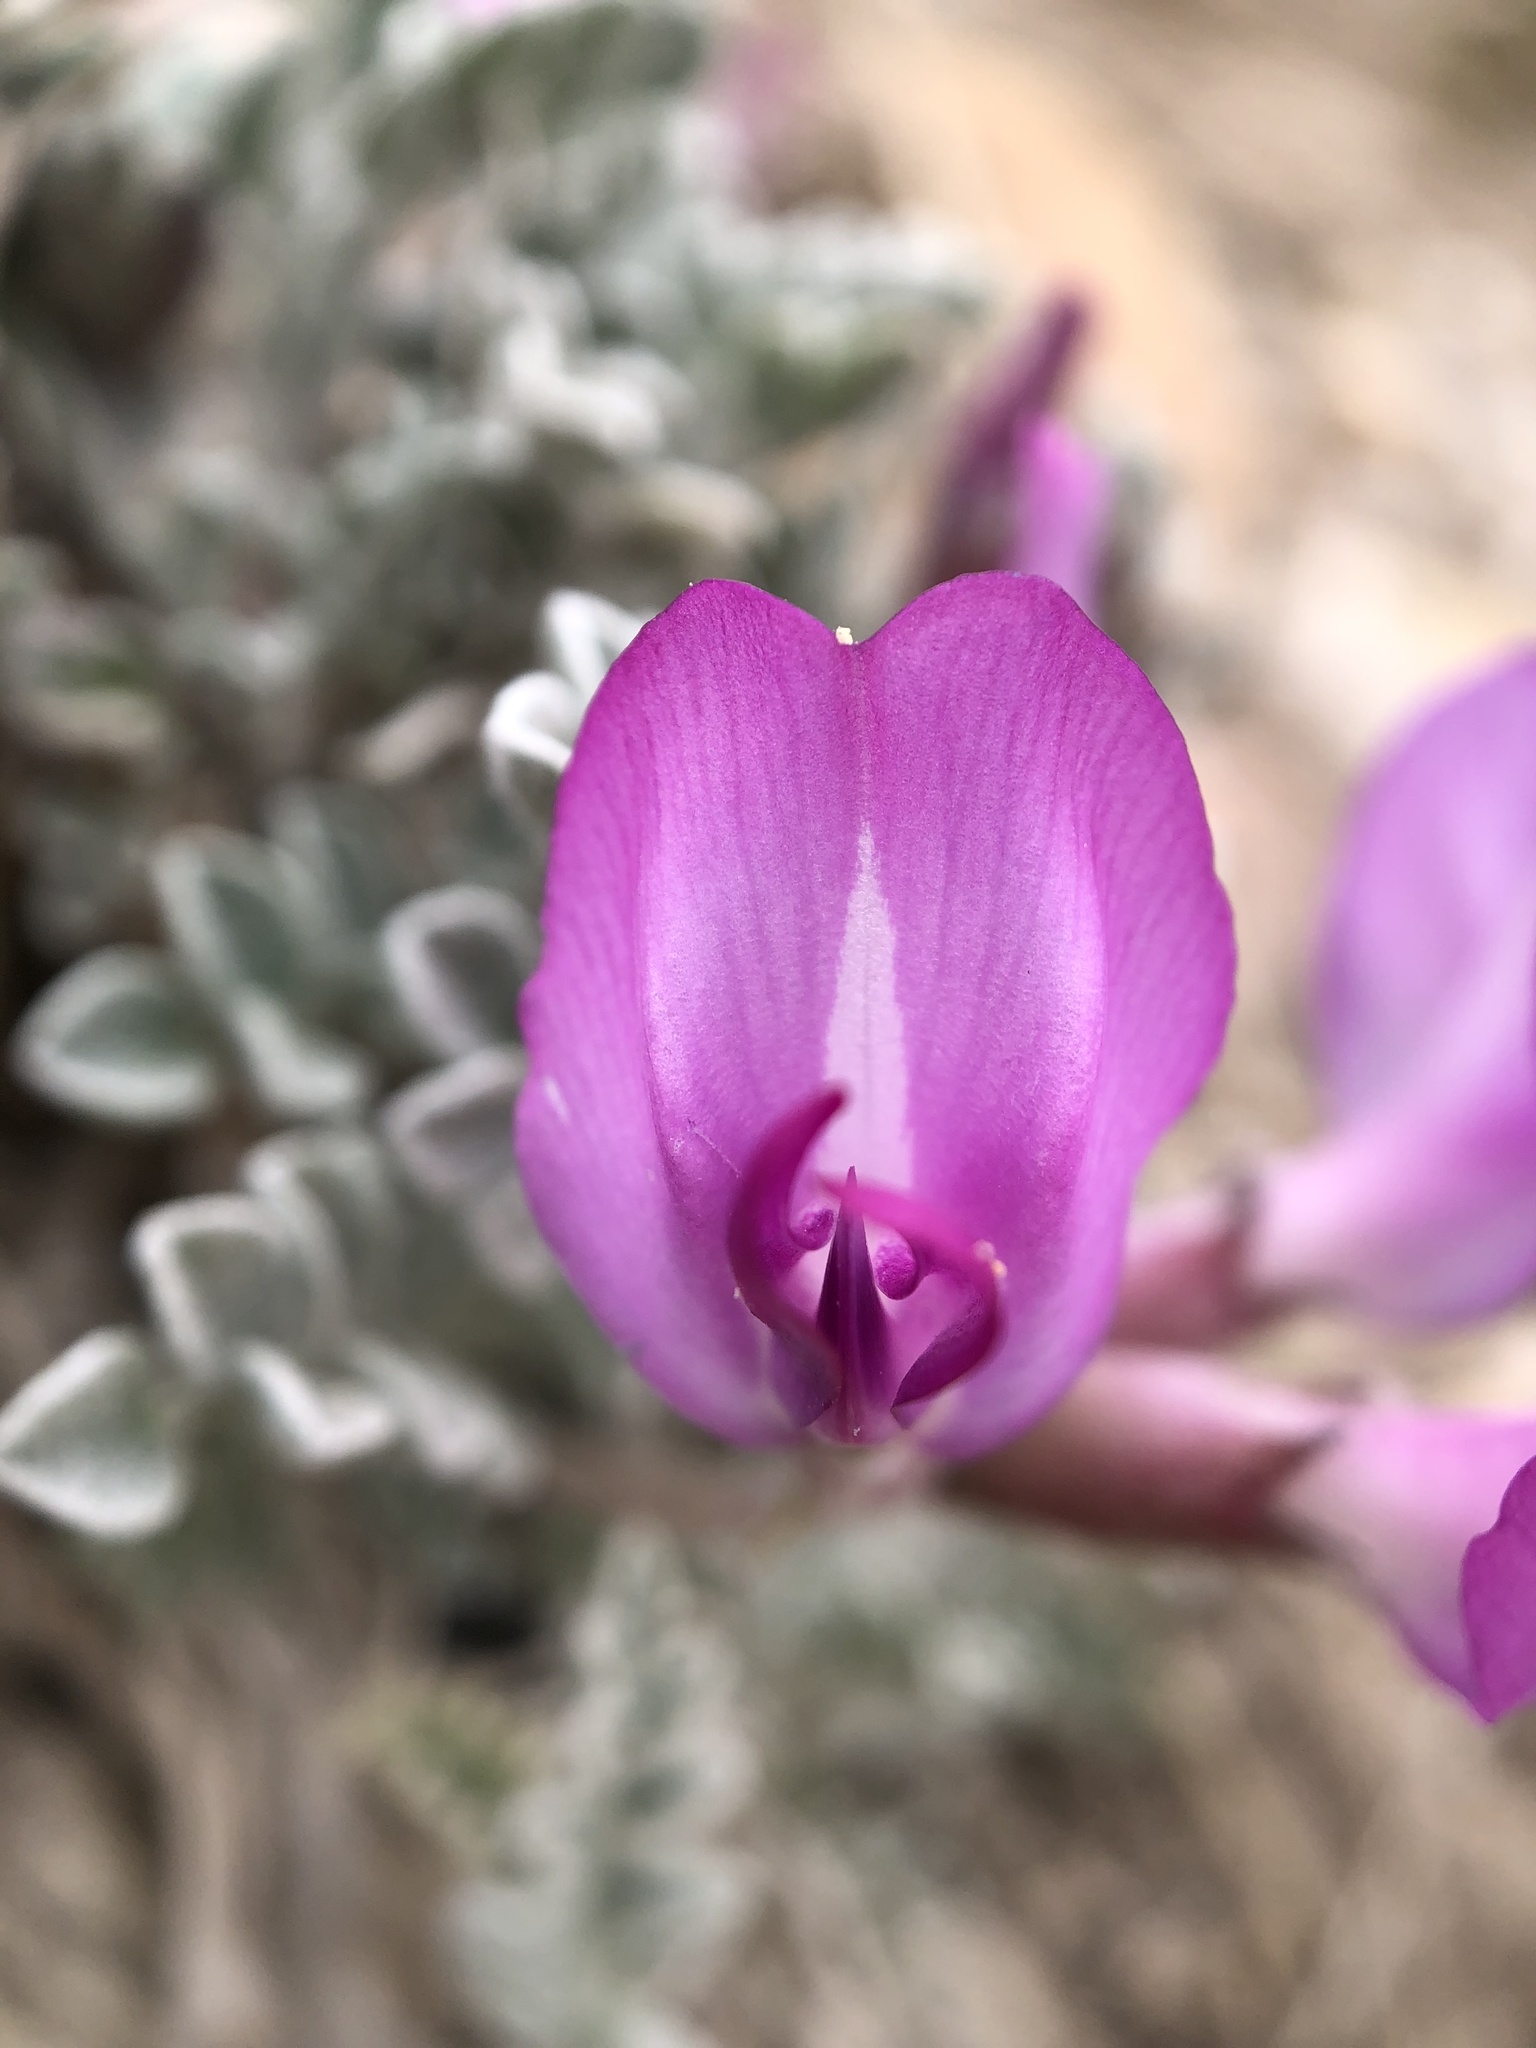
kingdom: Plantae
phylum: Tracheophyta
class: Magnoliopsida
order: Fabales
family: Fabaceae
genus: Astragalus
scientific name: Astragalus utahensis
